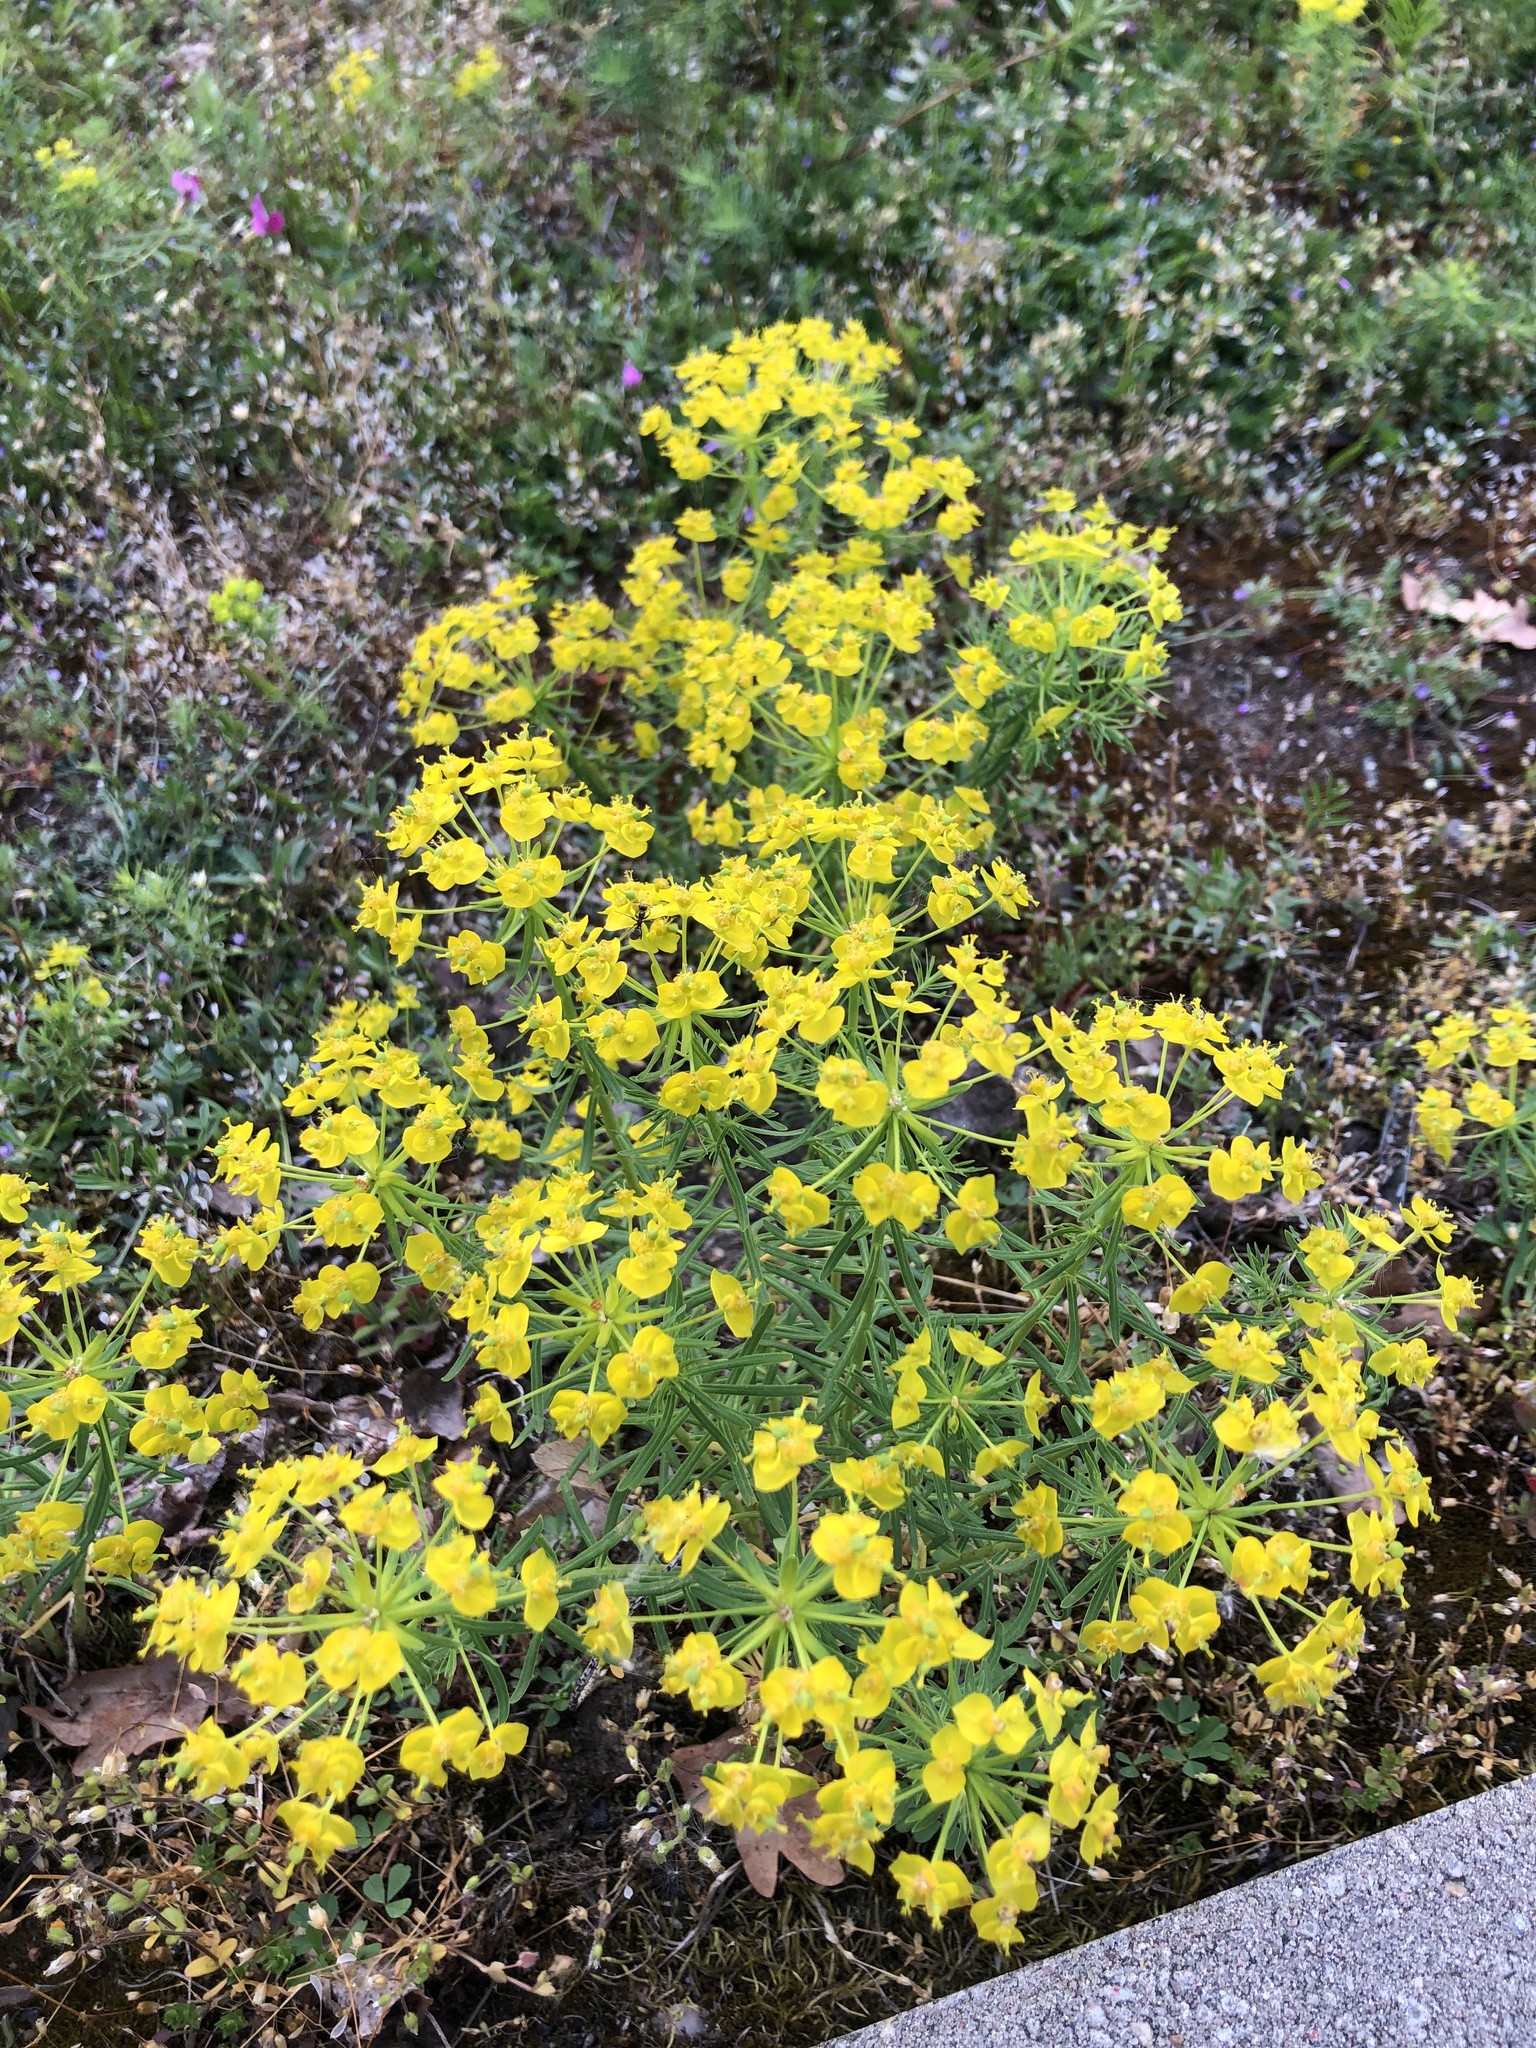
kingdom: Plantae
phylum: Tracheophyta
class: Magnoliopsida
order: Malpighiales
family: Euphorbiaceae
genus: Euphorbia
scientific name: Euphorbia cyparissias
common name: Cypress spurge
